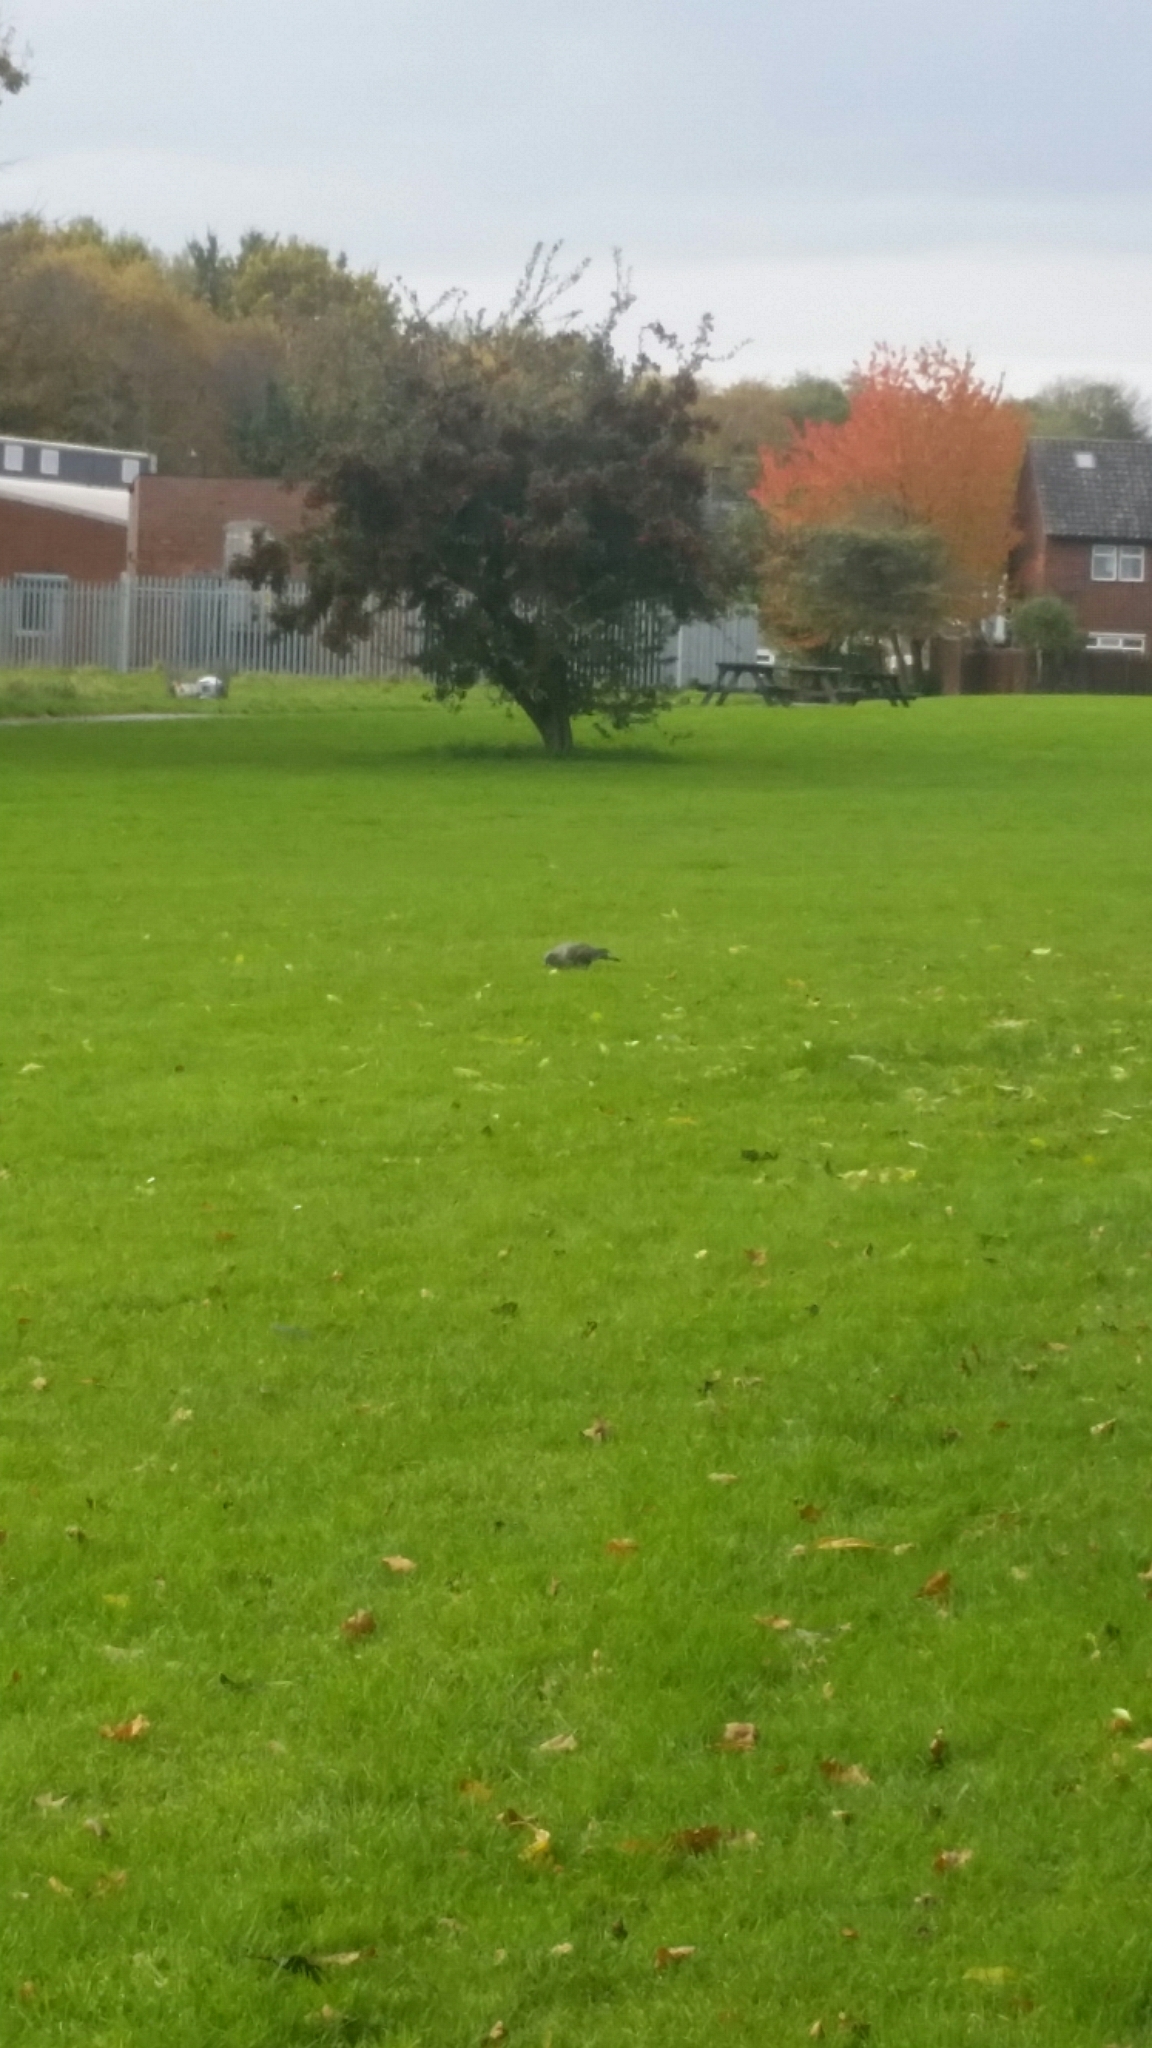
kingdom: Animalia
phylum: Chordata
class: Aves
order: Columbiformes
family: Columbidae
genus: Columba
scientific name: Columba palumbus
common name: Common wood pigeon
